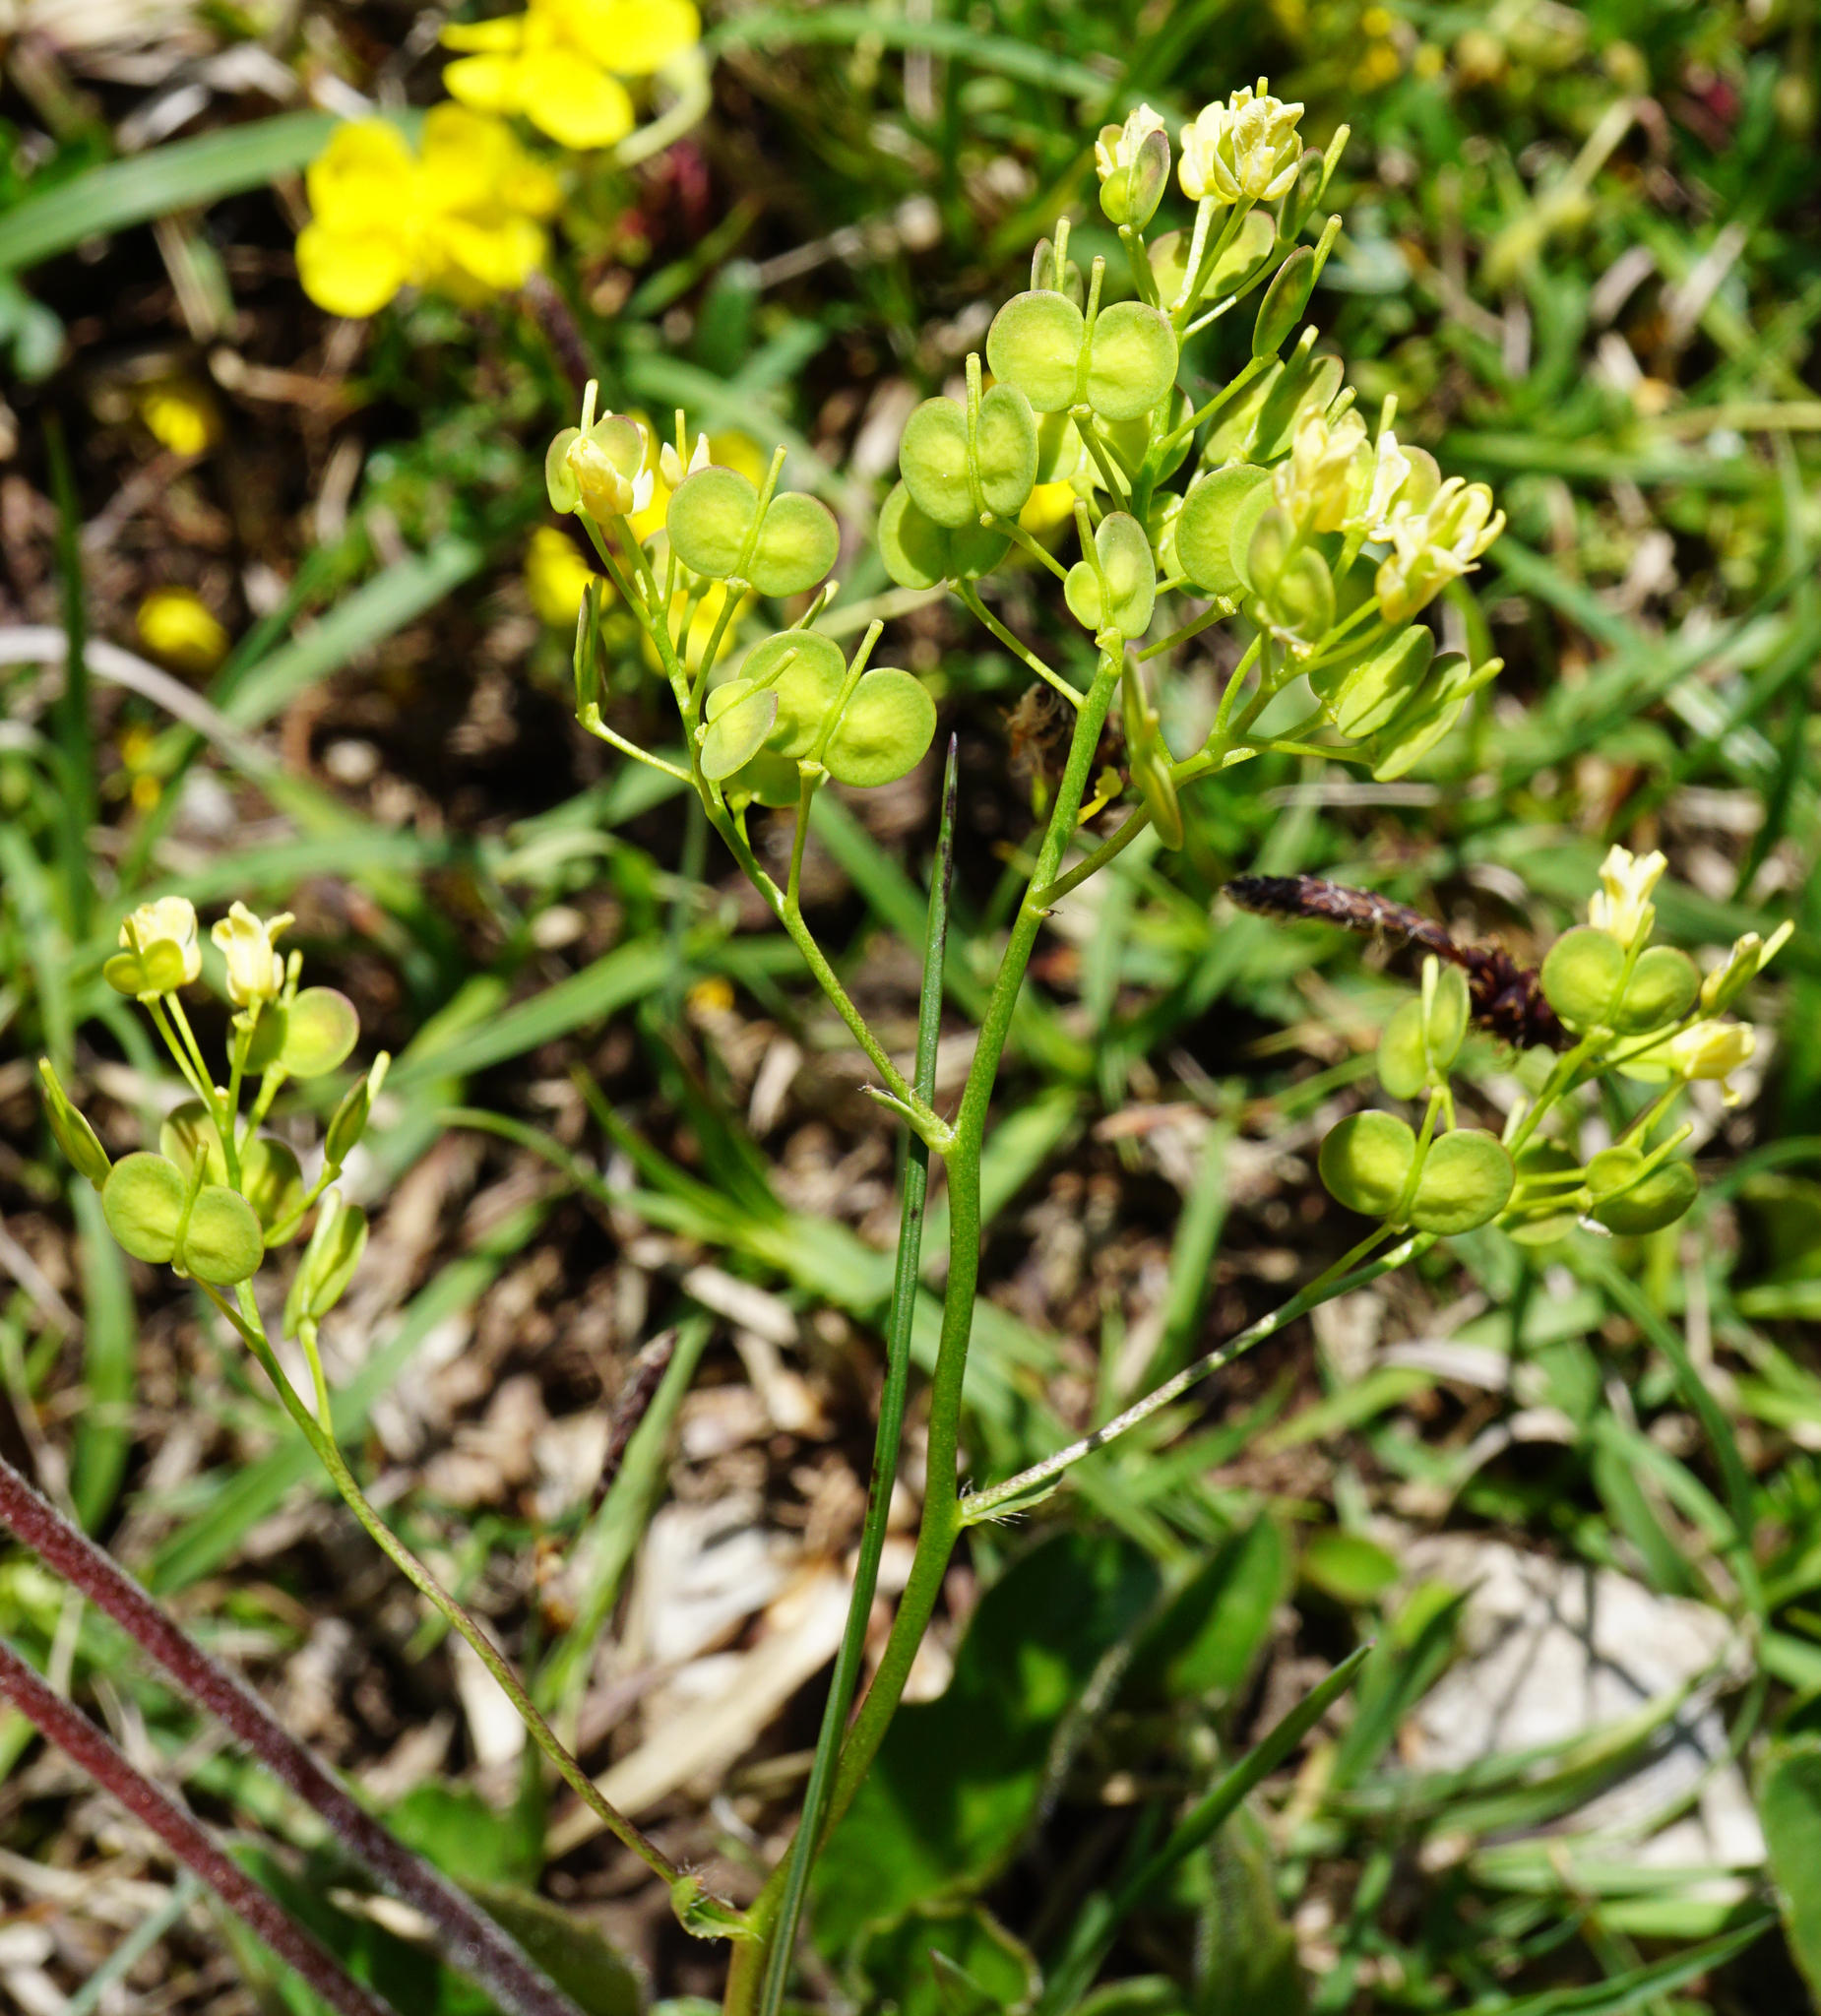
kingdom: Plantae
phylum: Tracheophyta
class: Magnoliopsida
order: Brassicales
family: Brassicaceae
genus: Biscutella
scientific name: Biscutella laevigata
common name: Buckler mustard
